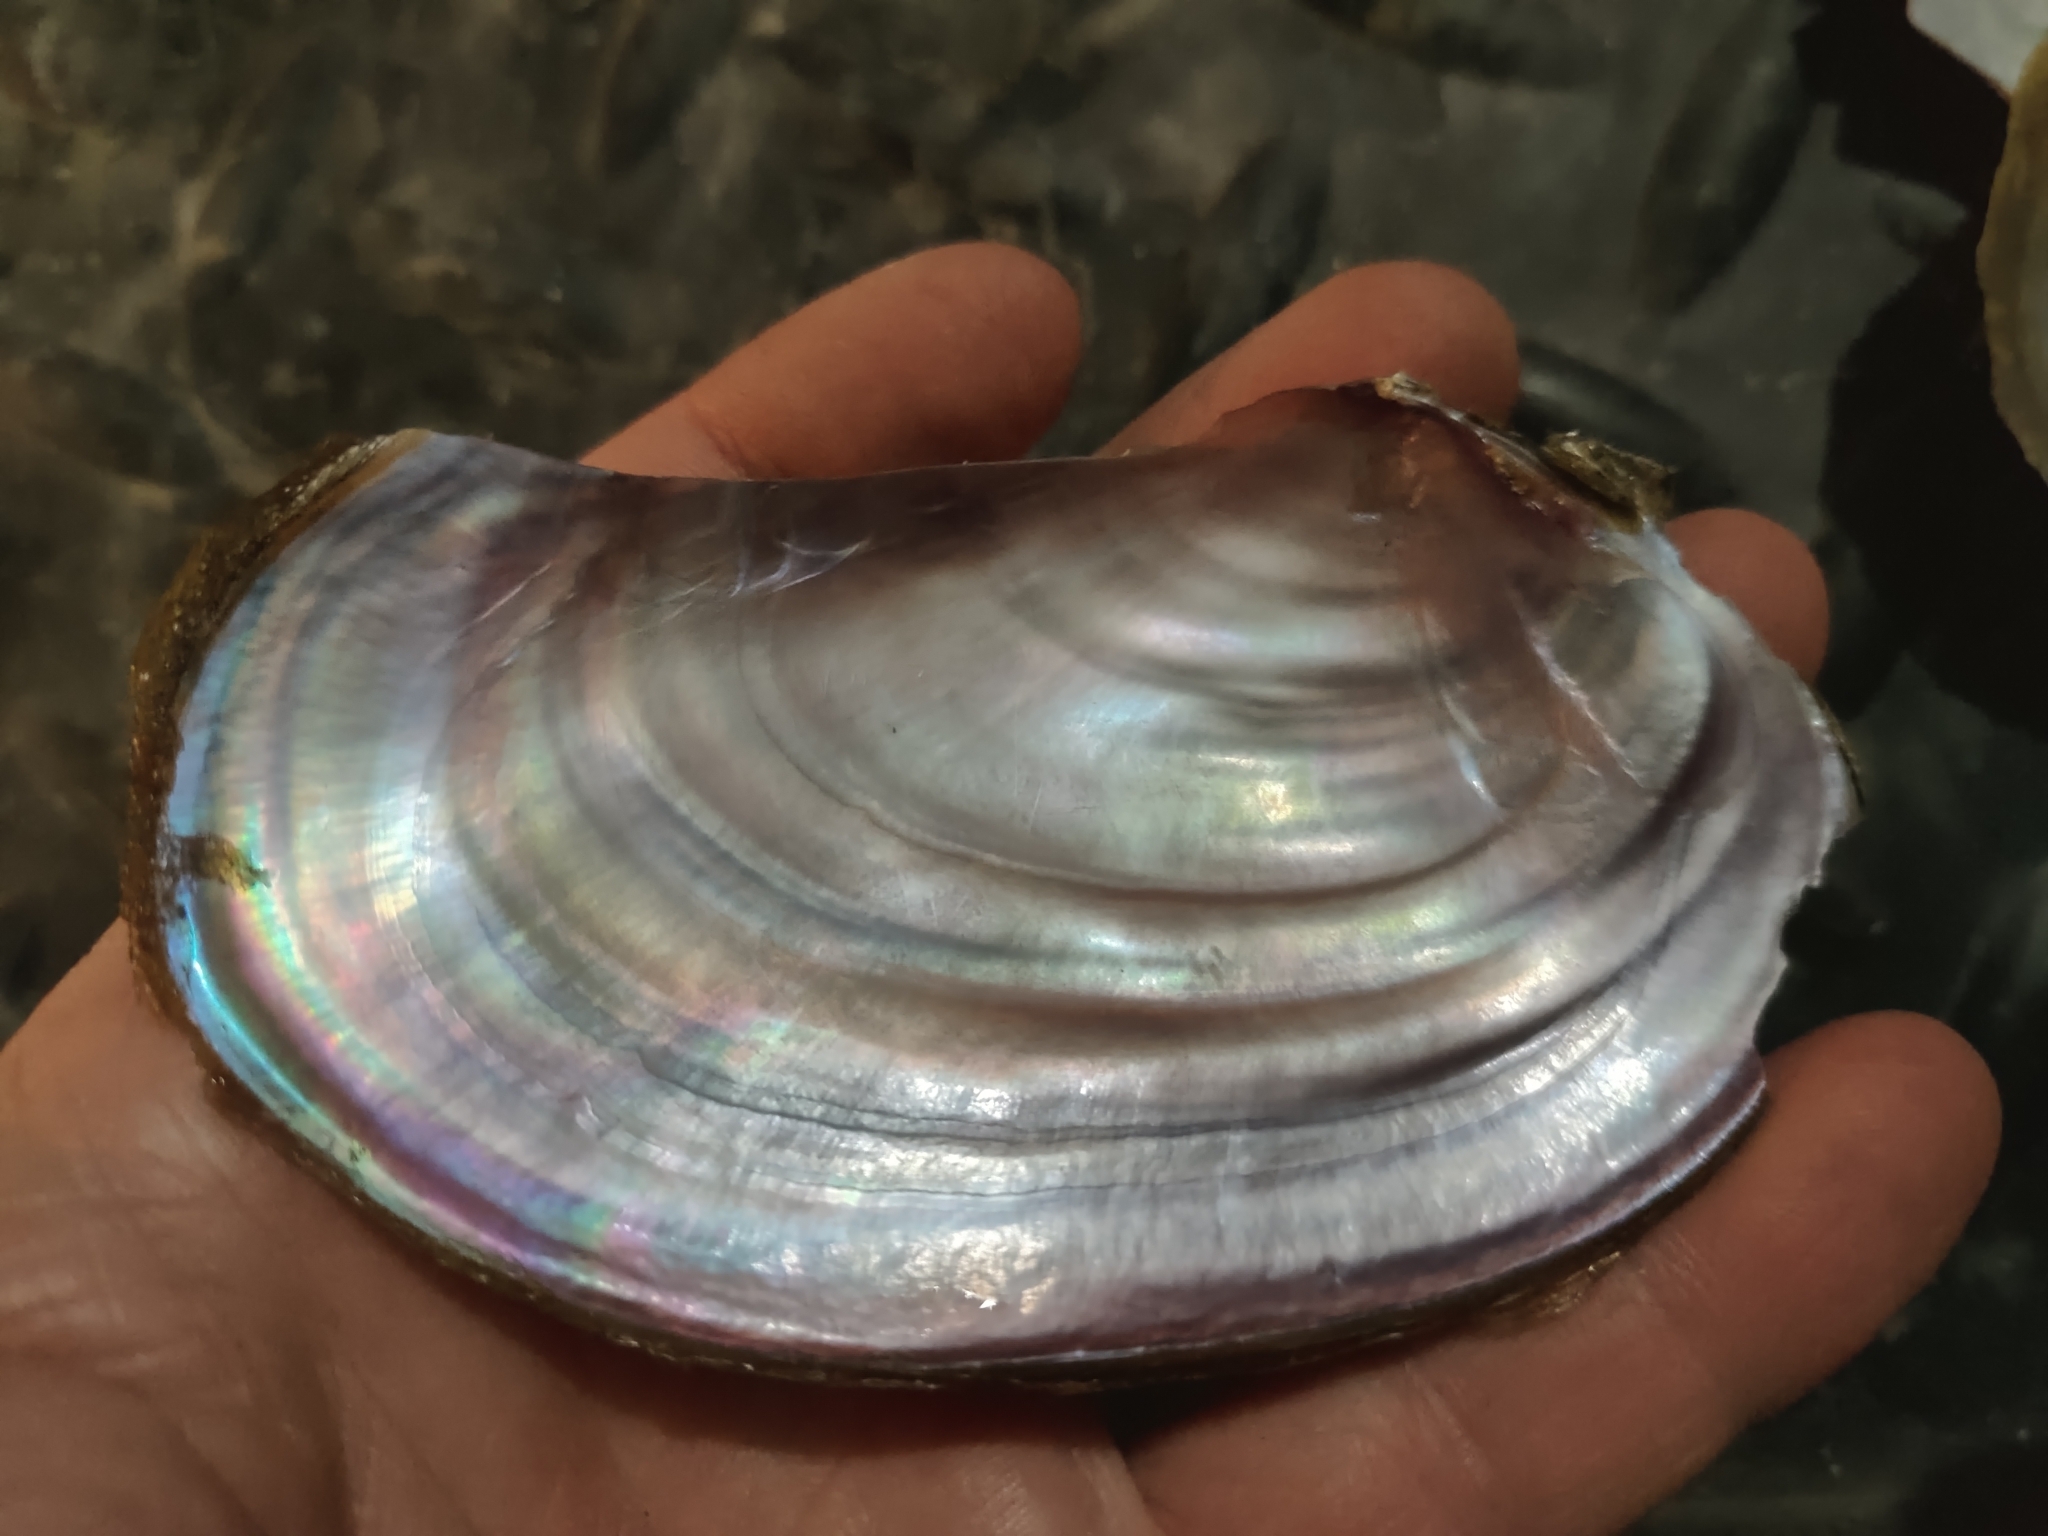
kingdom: Animalia
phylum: Mollusca
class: Bivalvia
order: Unionida
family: Unionidae
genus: Potamilus
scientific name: Potamilus ohiensis
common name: Pink papershell
